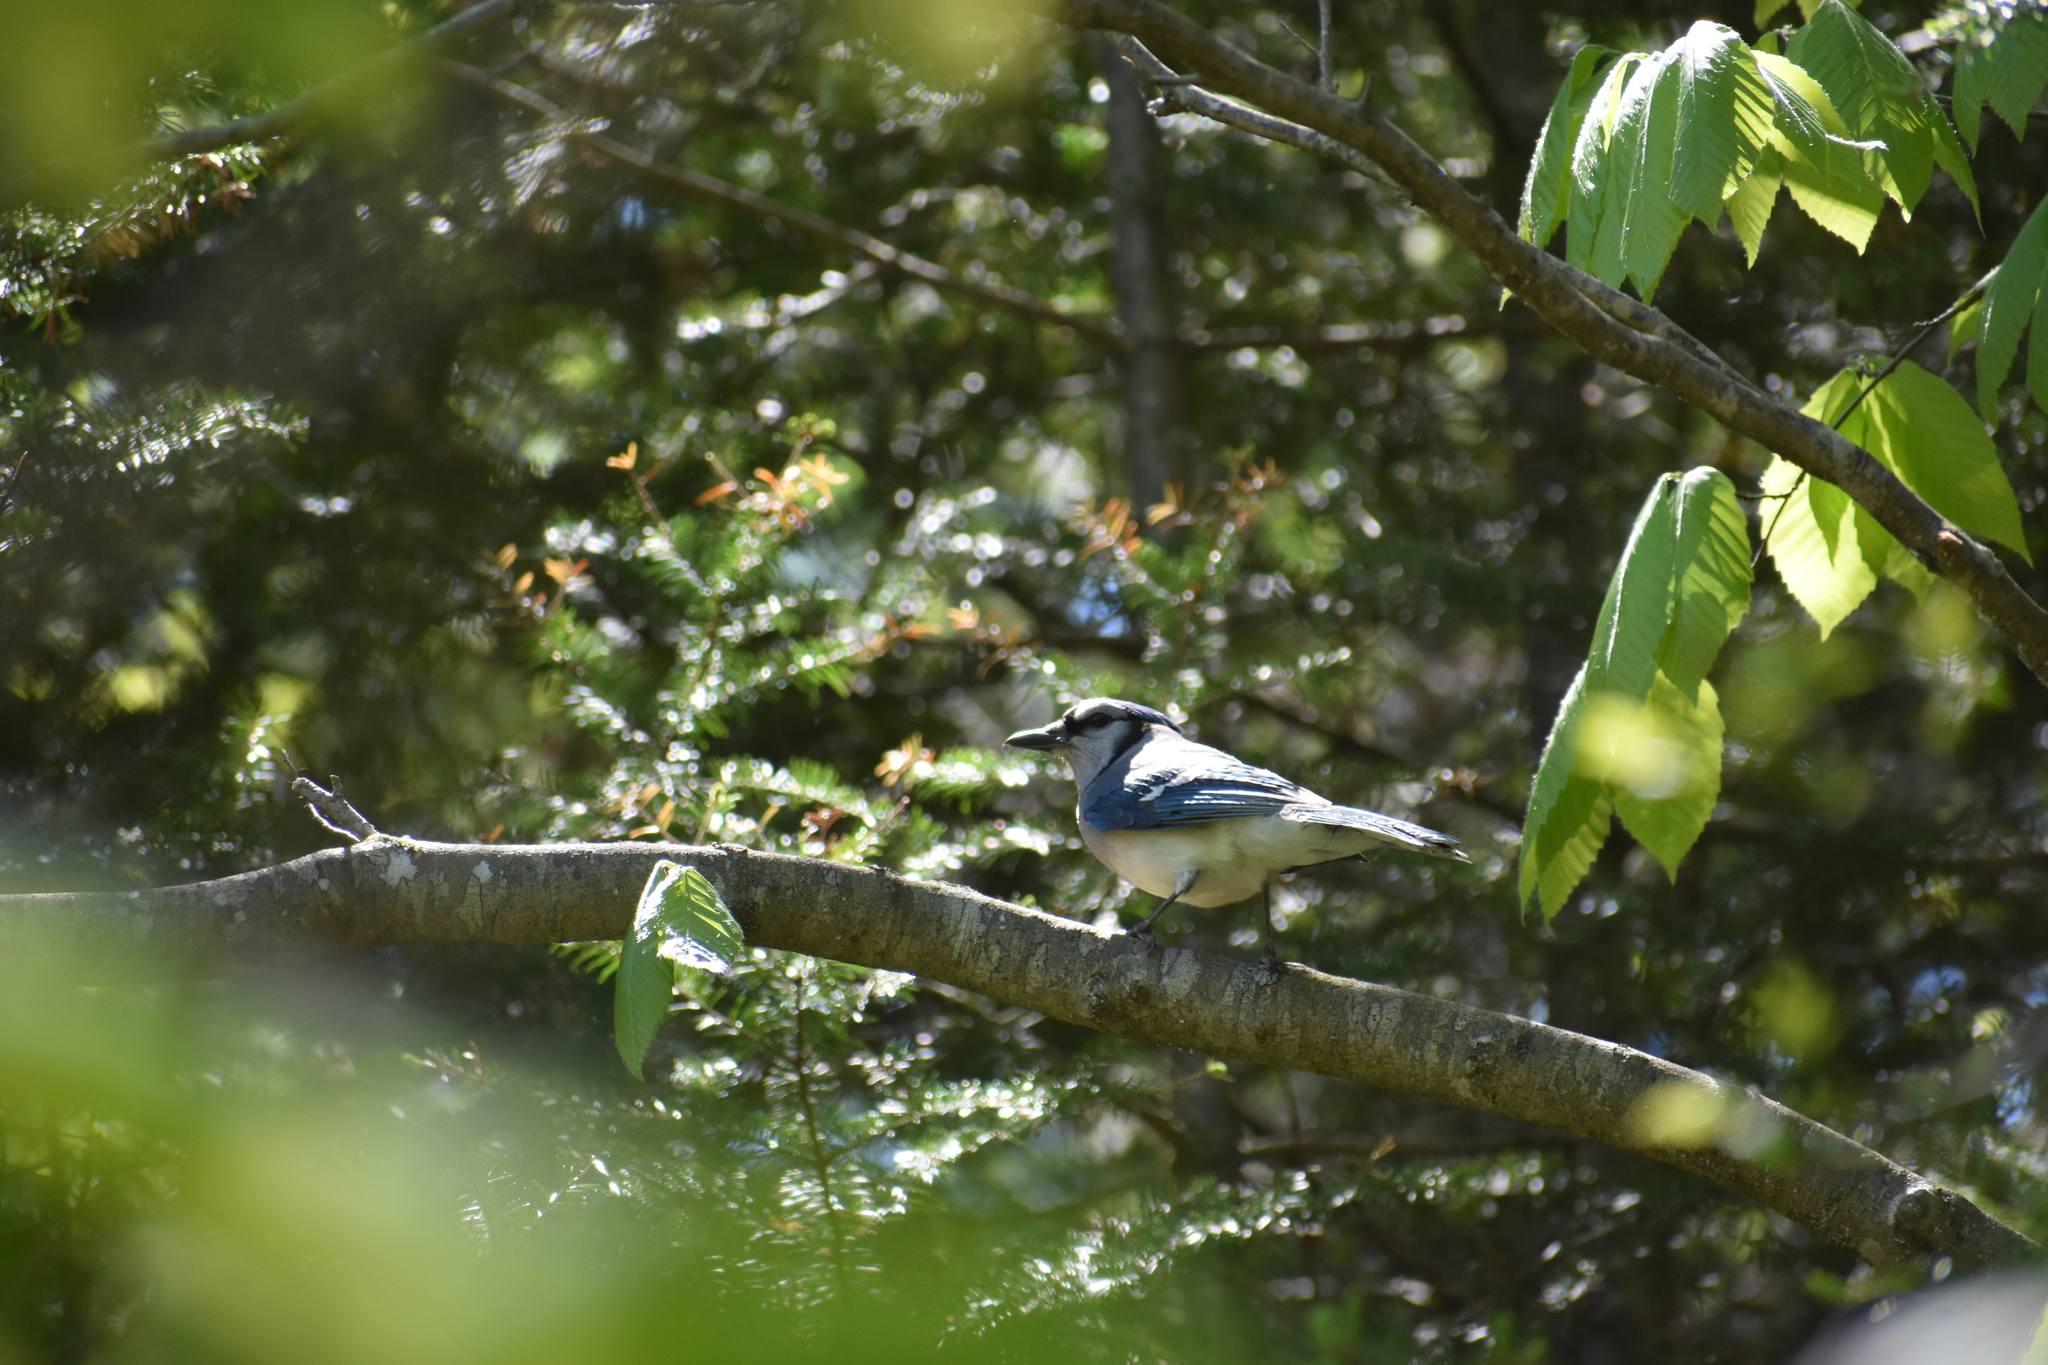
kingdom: Animalia
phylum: Chordata
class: Aves
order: Passeriformes
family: Corvidae
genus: Cyanocitta
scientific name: Cyanocitta cristata
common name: Blue jay
